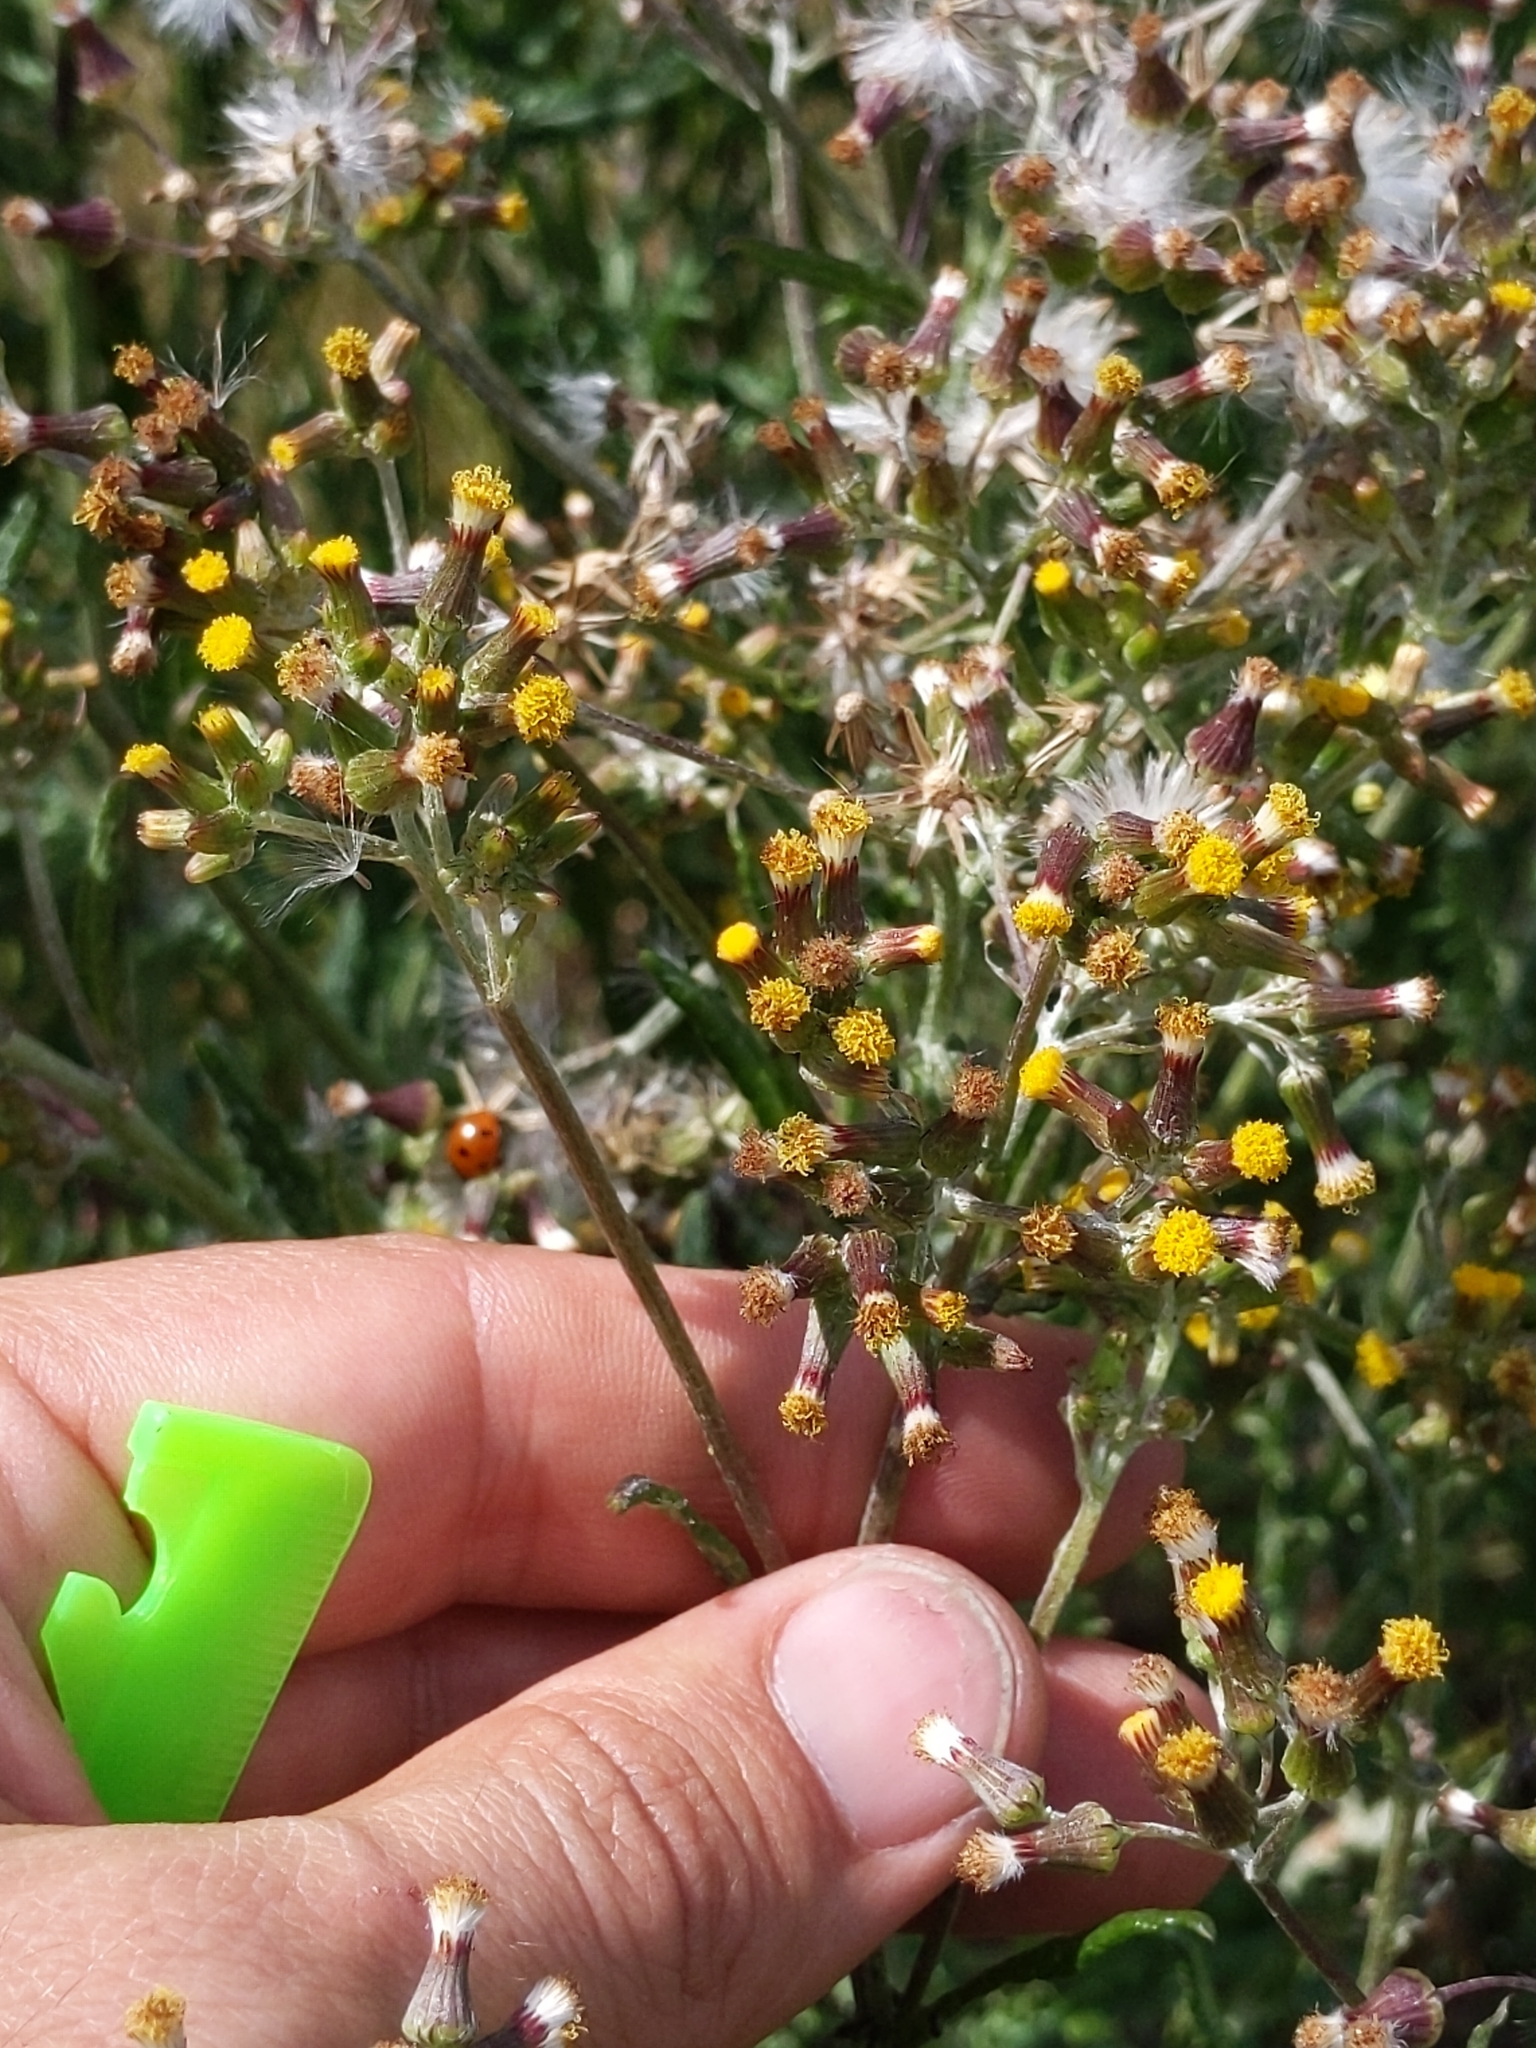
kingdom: Plantae
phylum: Tracheophyta
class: Magnoliopsida
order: Asterales
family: Asteraceae
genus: Senecio
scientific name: Senecio glomeratus
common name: Cutleaf burnweed
